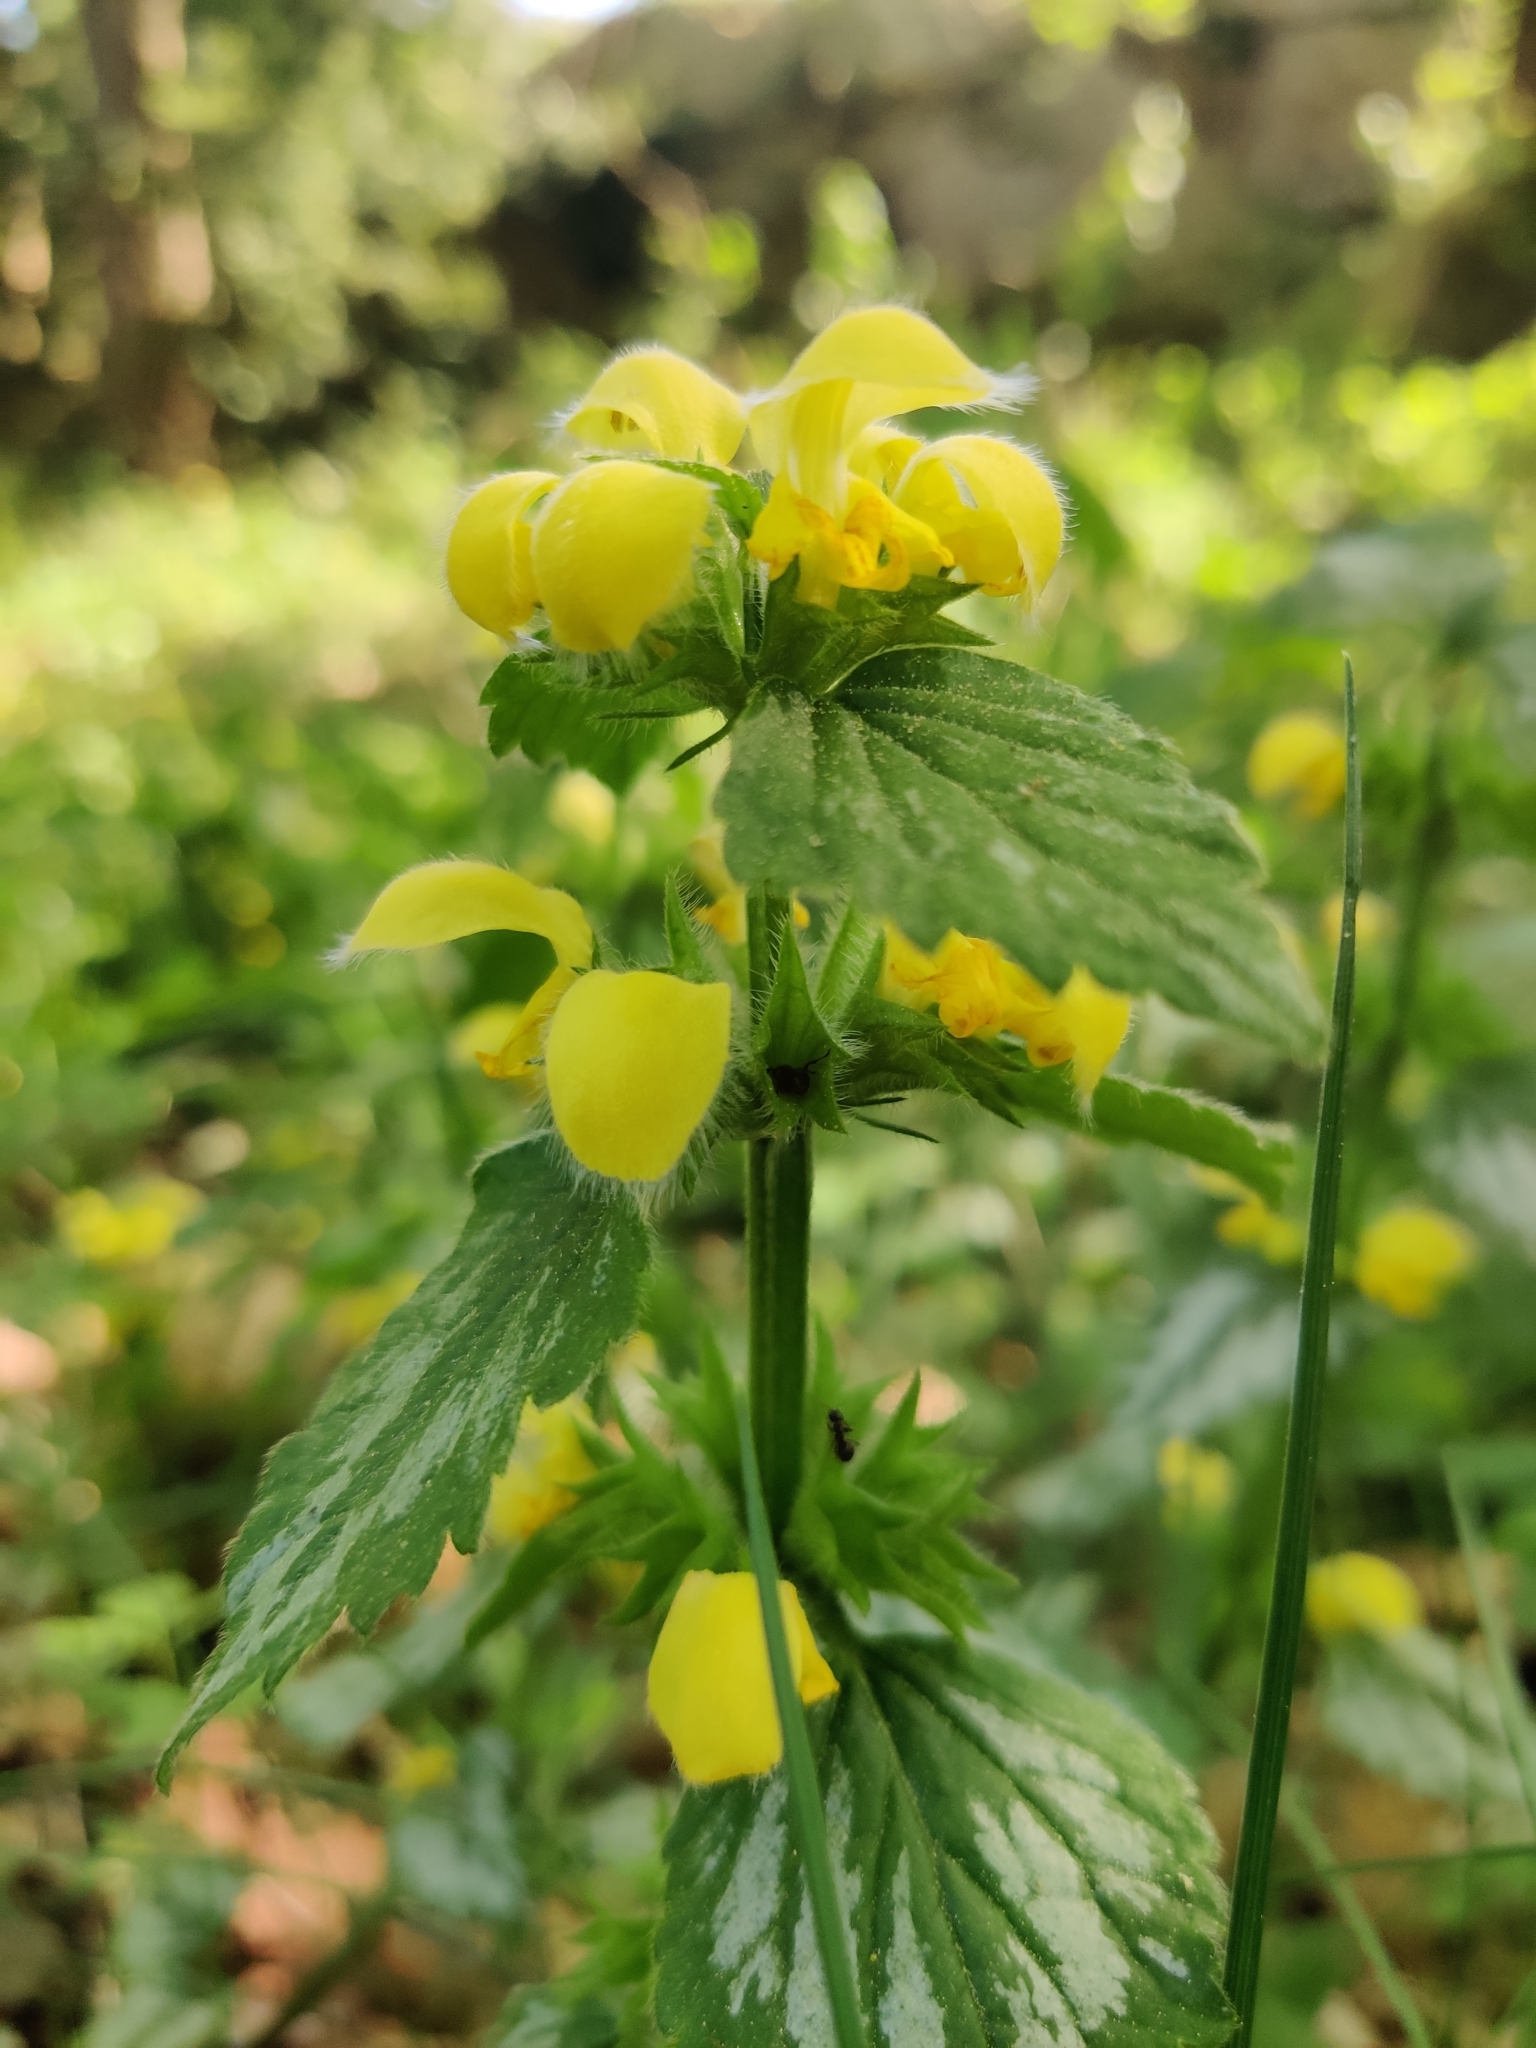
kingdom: Plantae
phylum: Tracheophyta
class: Magnoliopsida
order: Lamiales
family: Lamiaceae
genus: Lamium
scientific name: Lamium galeobdolon
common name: Yellow archangel
